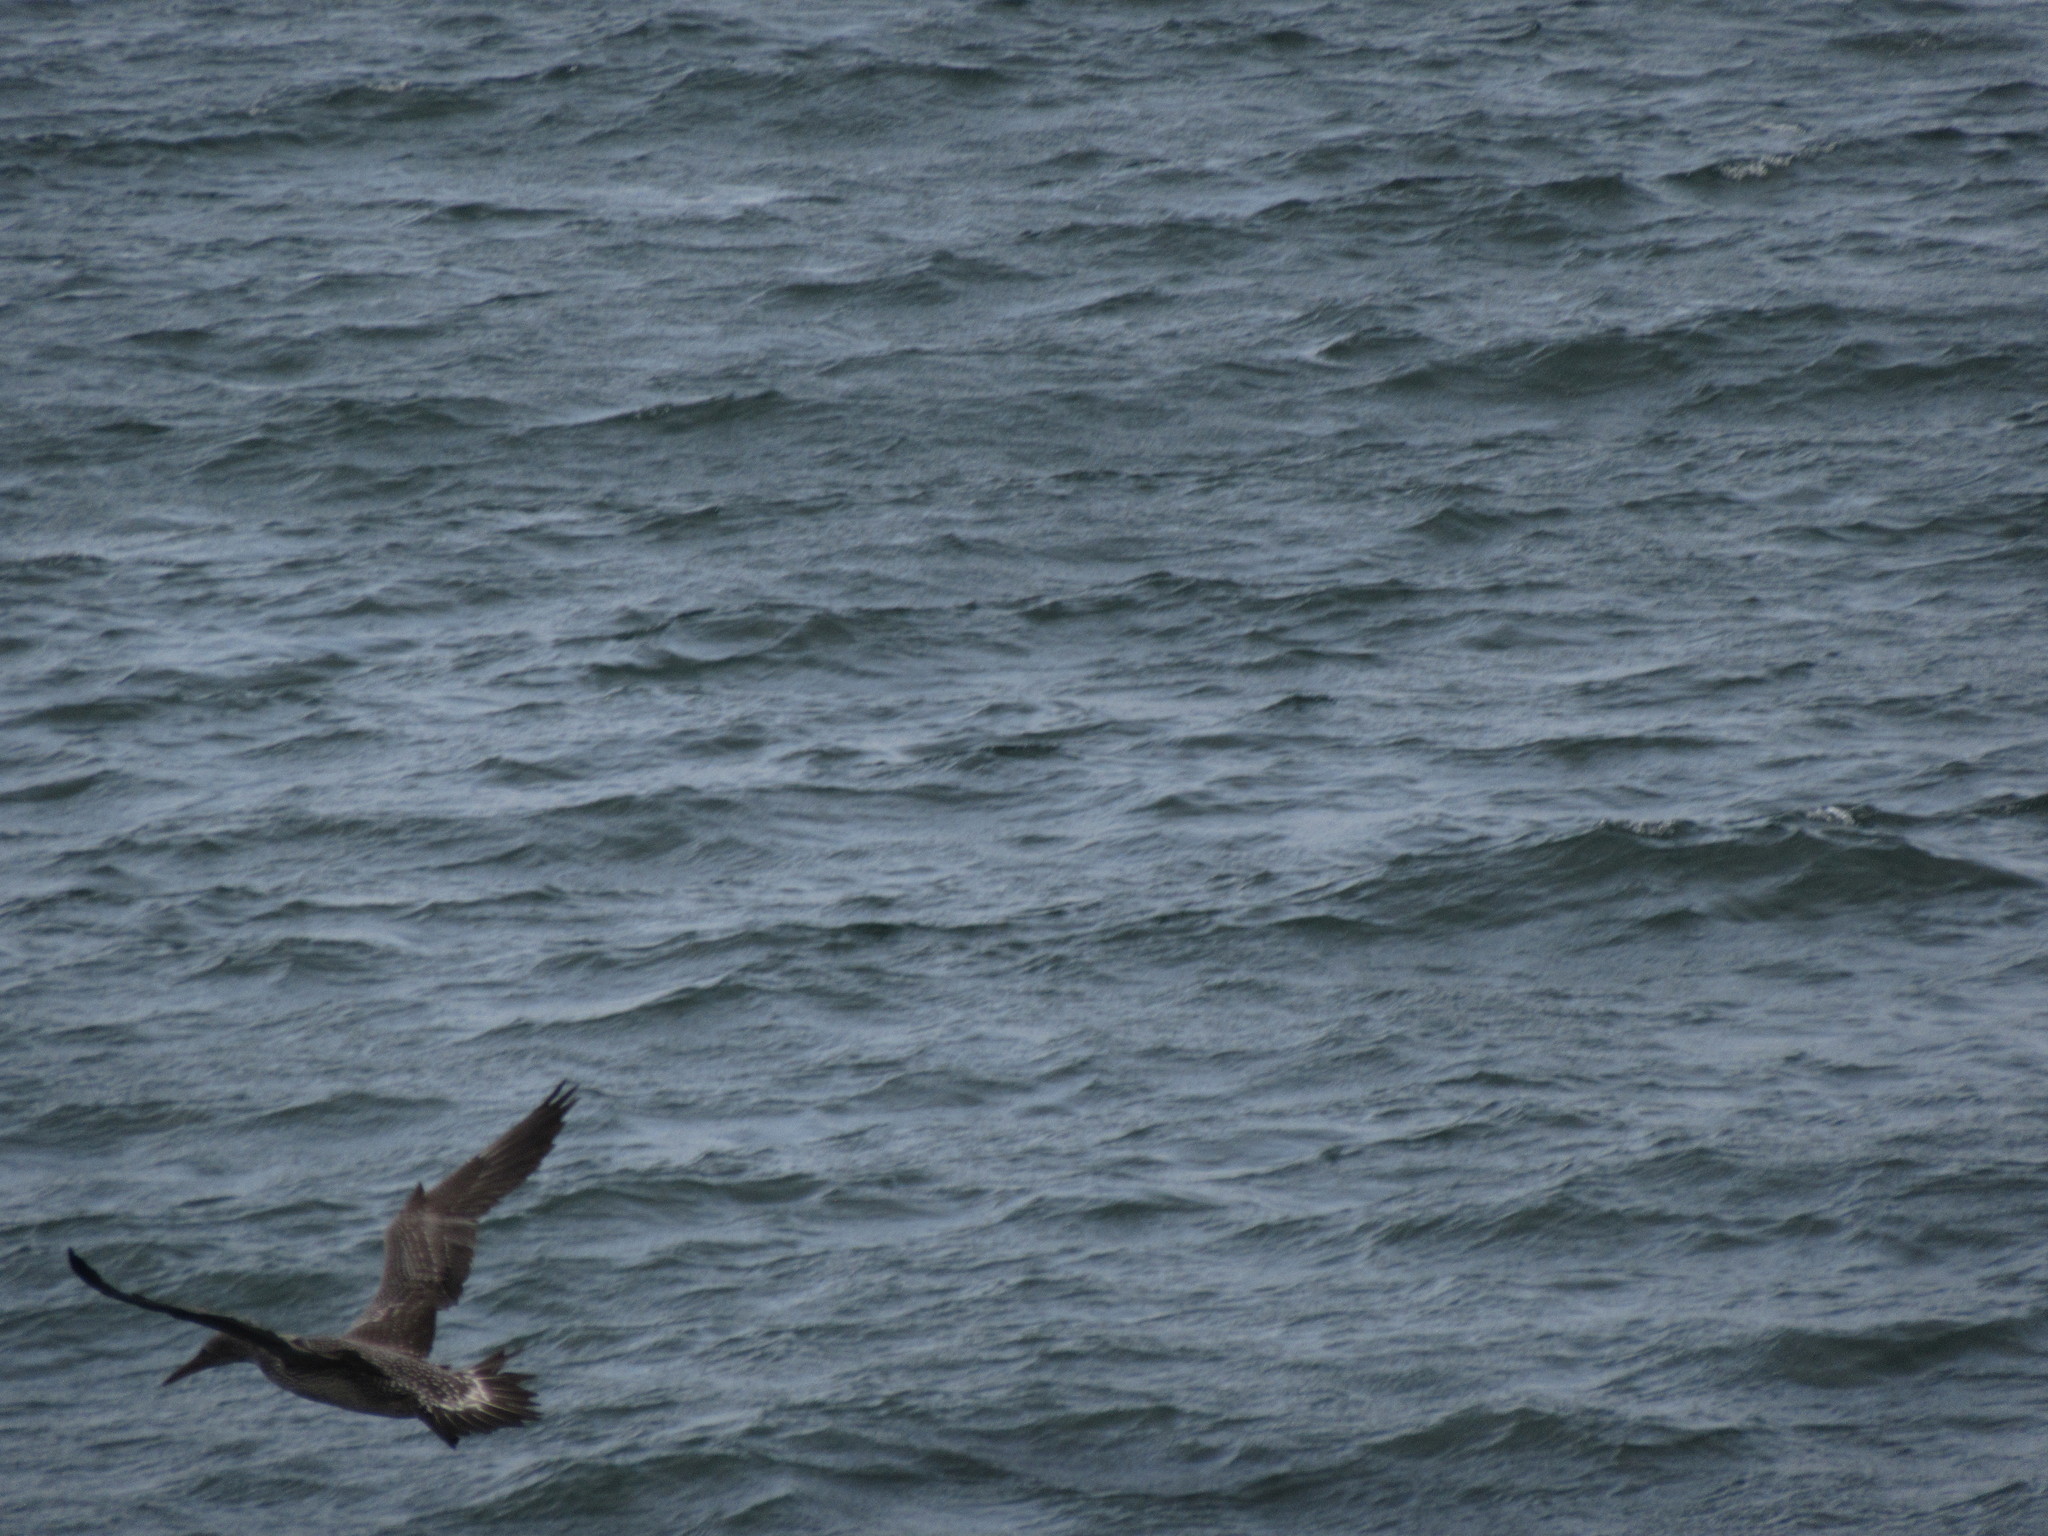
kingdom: Animalia
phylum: Chordata
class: Aves
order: Suliformes
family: Sulidae
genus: Morus
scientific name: Morus bassanus
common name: Northern gannet
